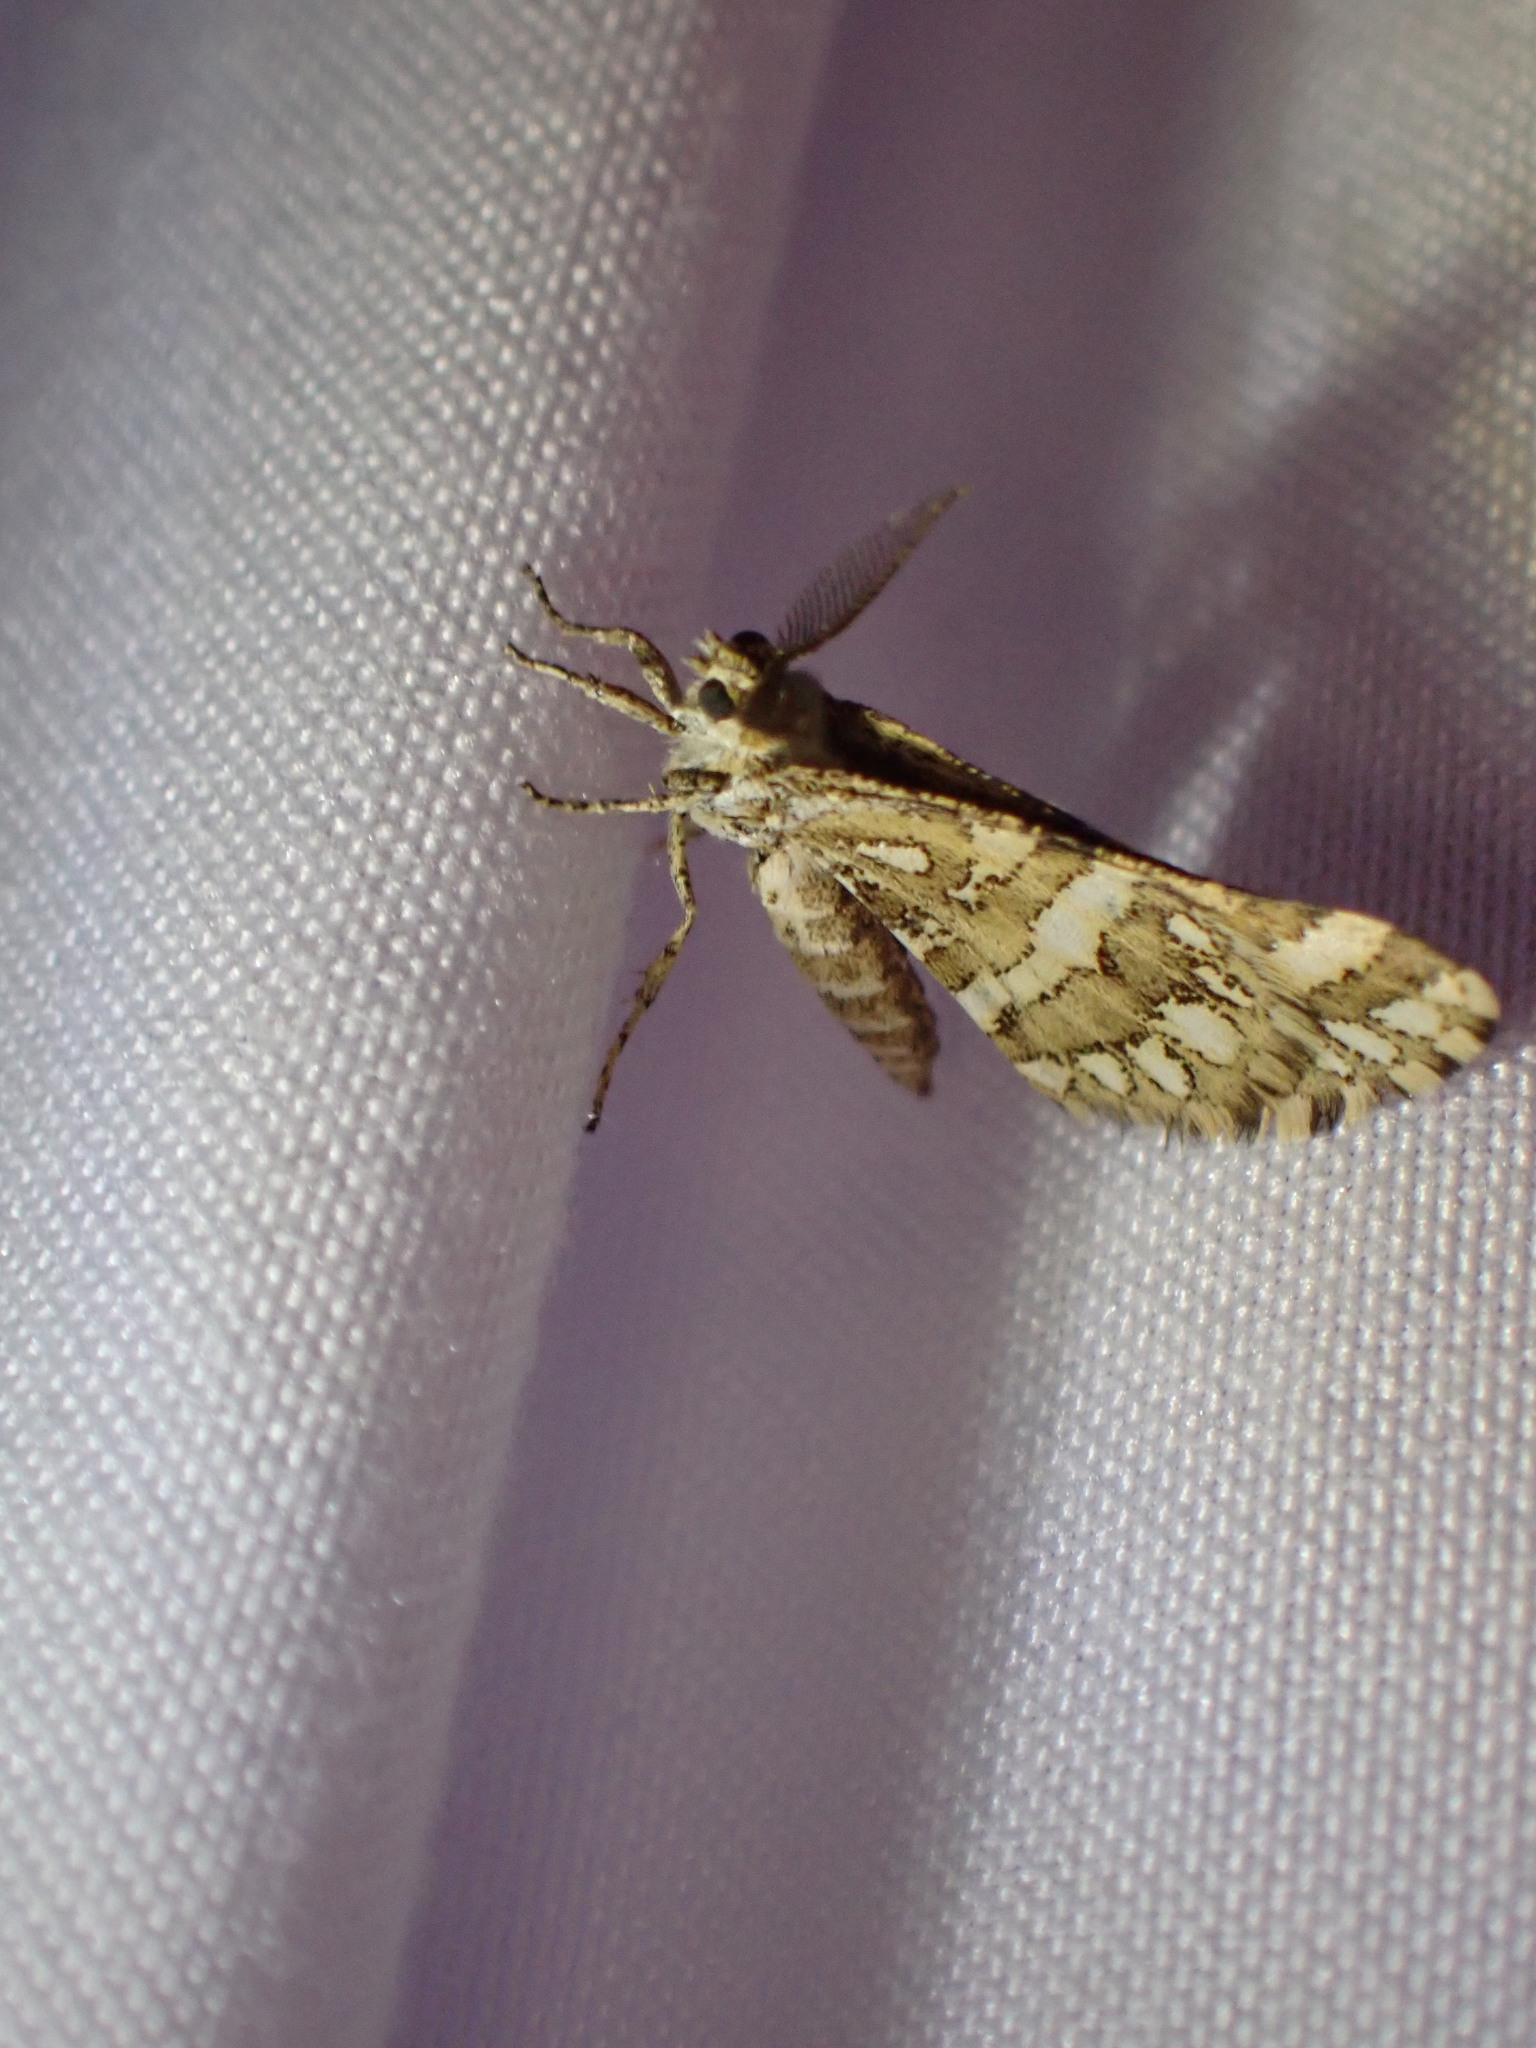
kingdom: Animalia
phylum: Arthropoda
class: Insecta
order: Lepidoptera
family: Geometridae
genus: Narraga
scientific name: Narraga fimetaria
